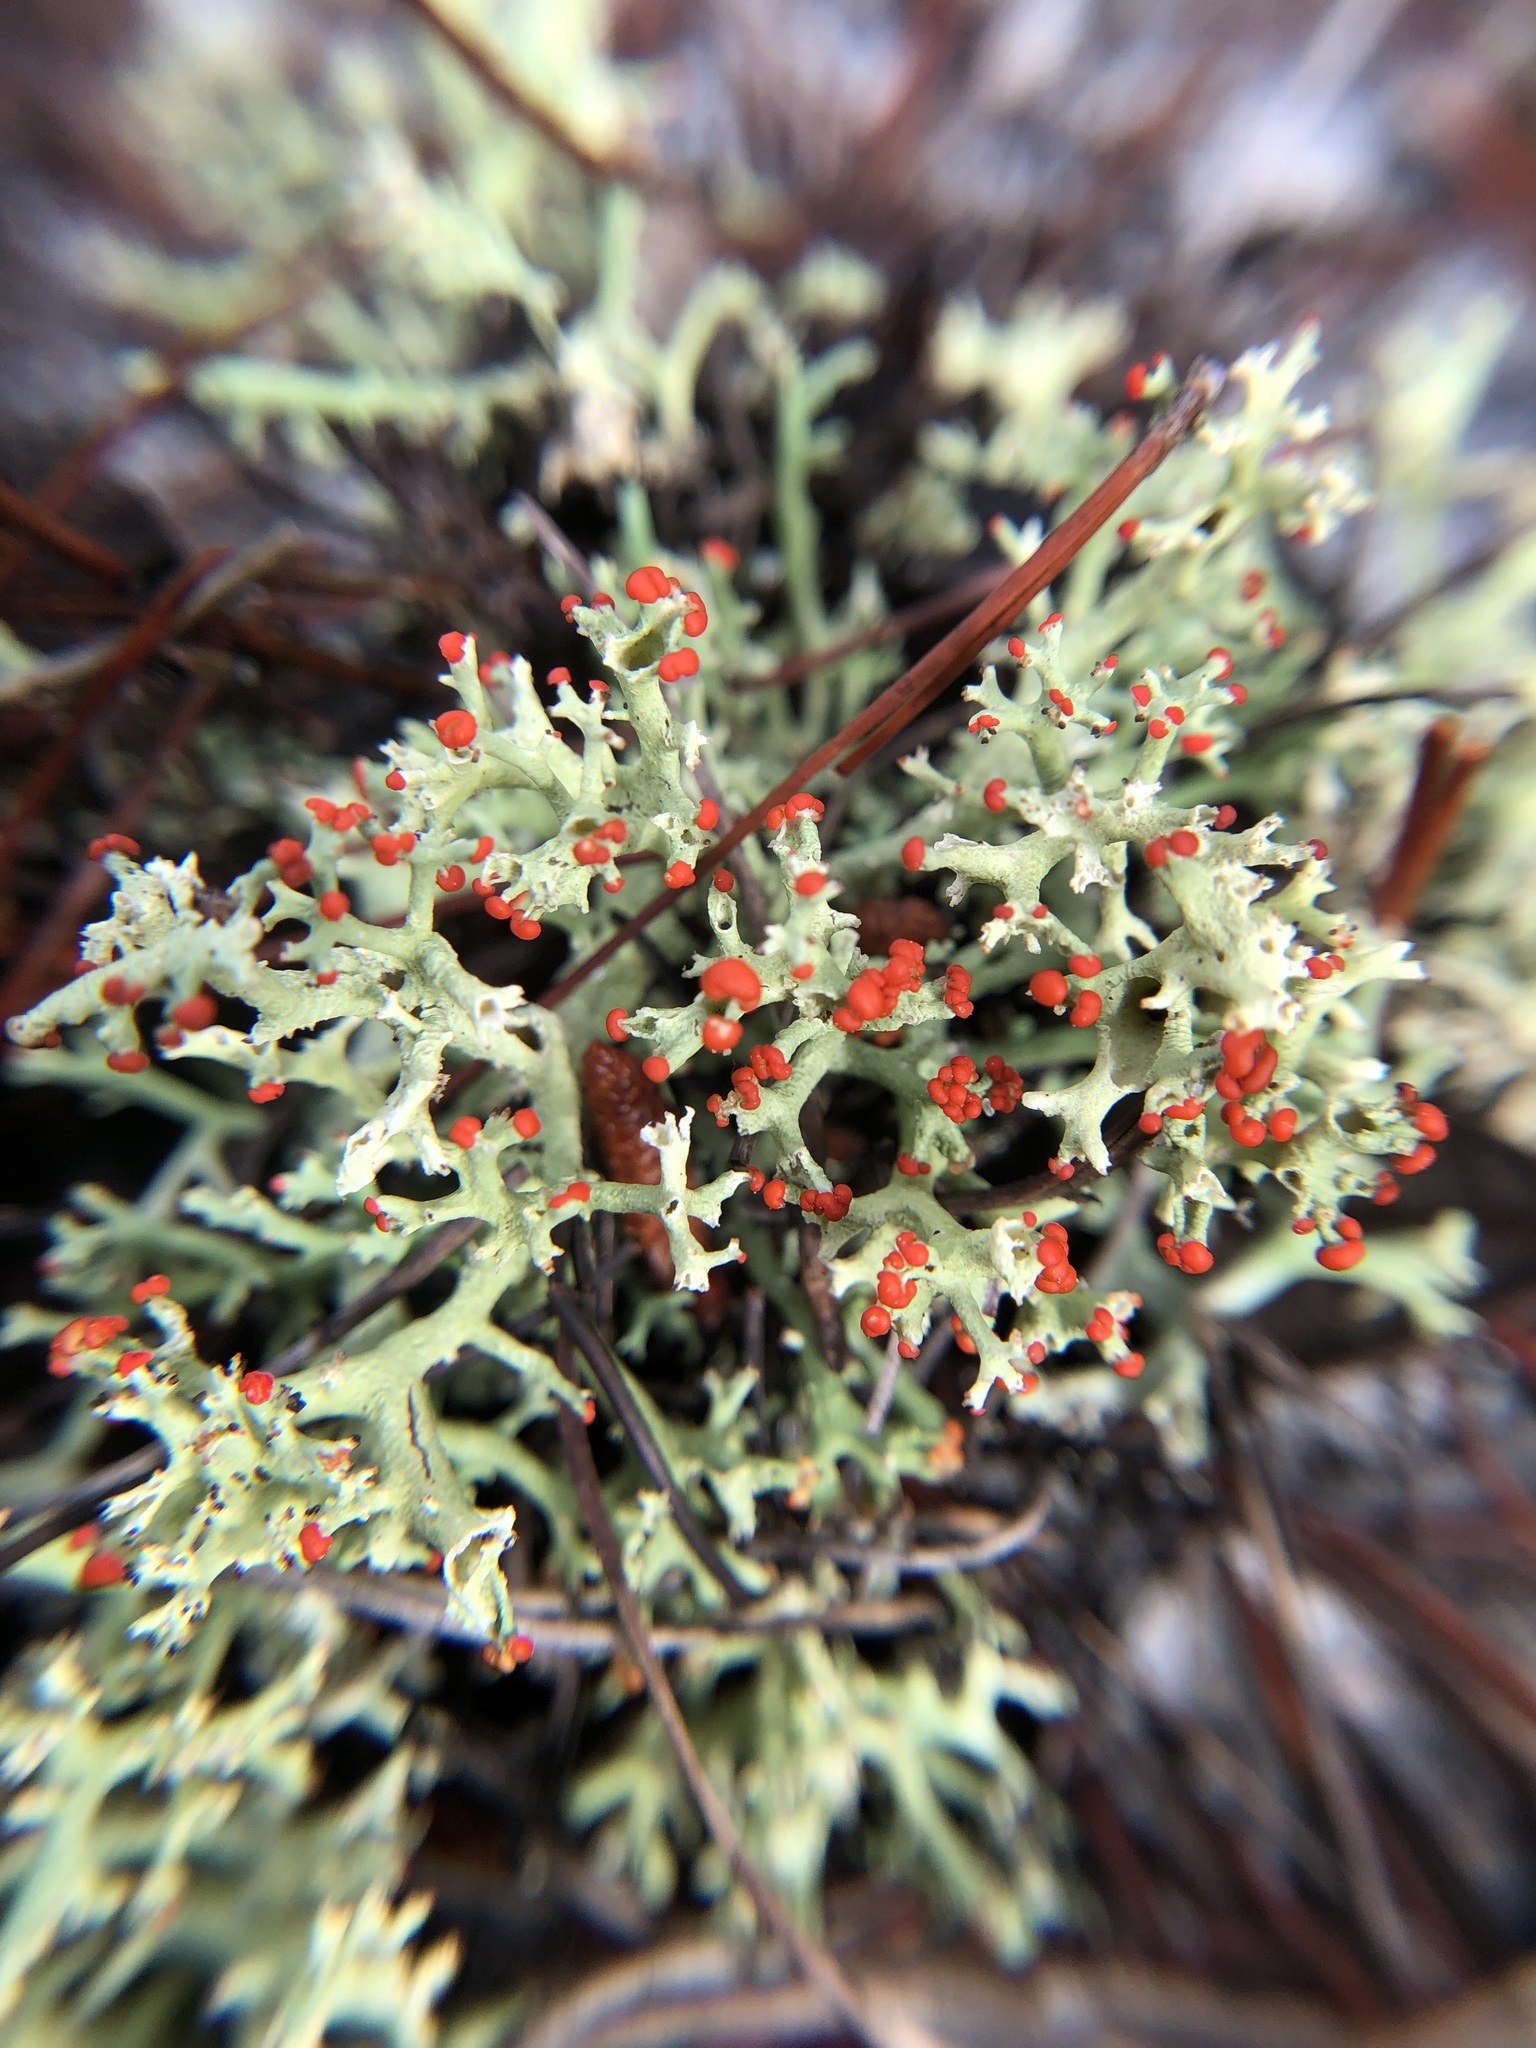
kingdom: Fungi
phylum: Ascomycota
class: Lecanoromycetes
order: Lecanorales
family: Cladoniaceae
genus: Cladonia
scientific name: Cladonia leporina
